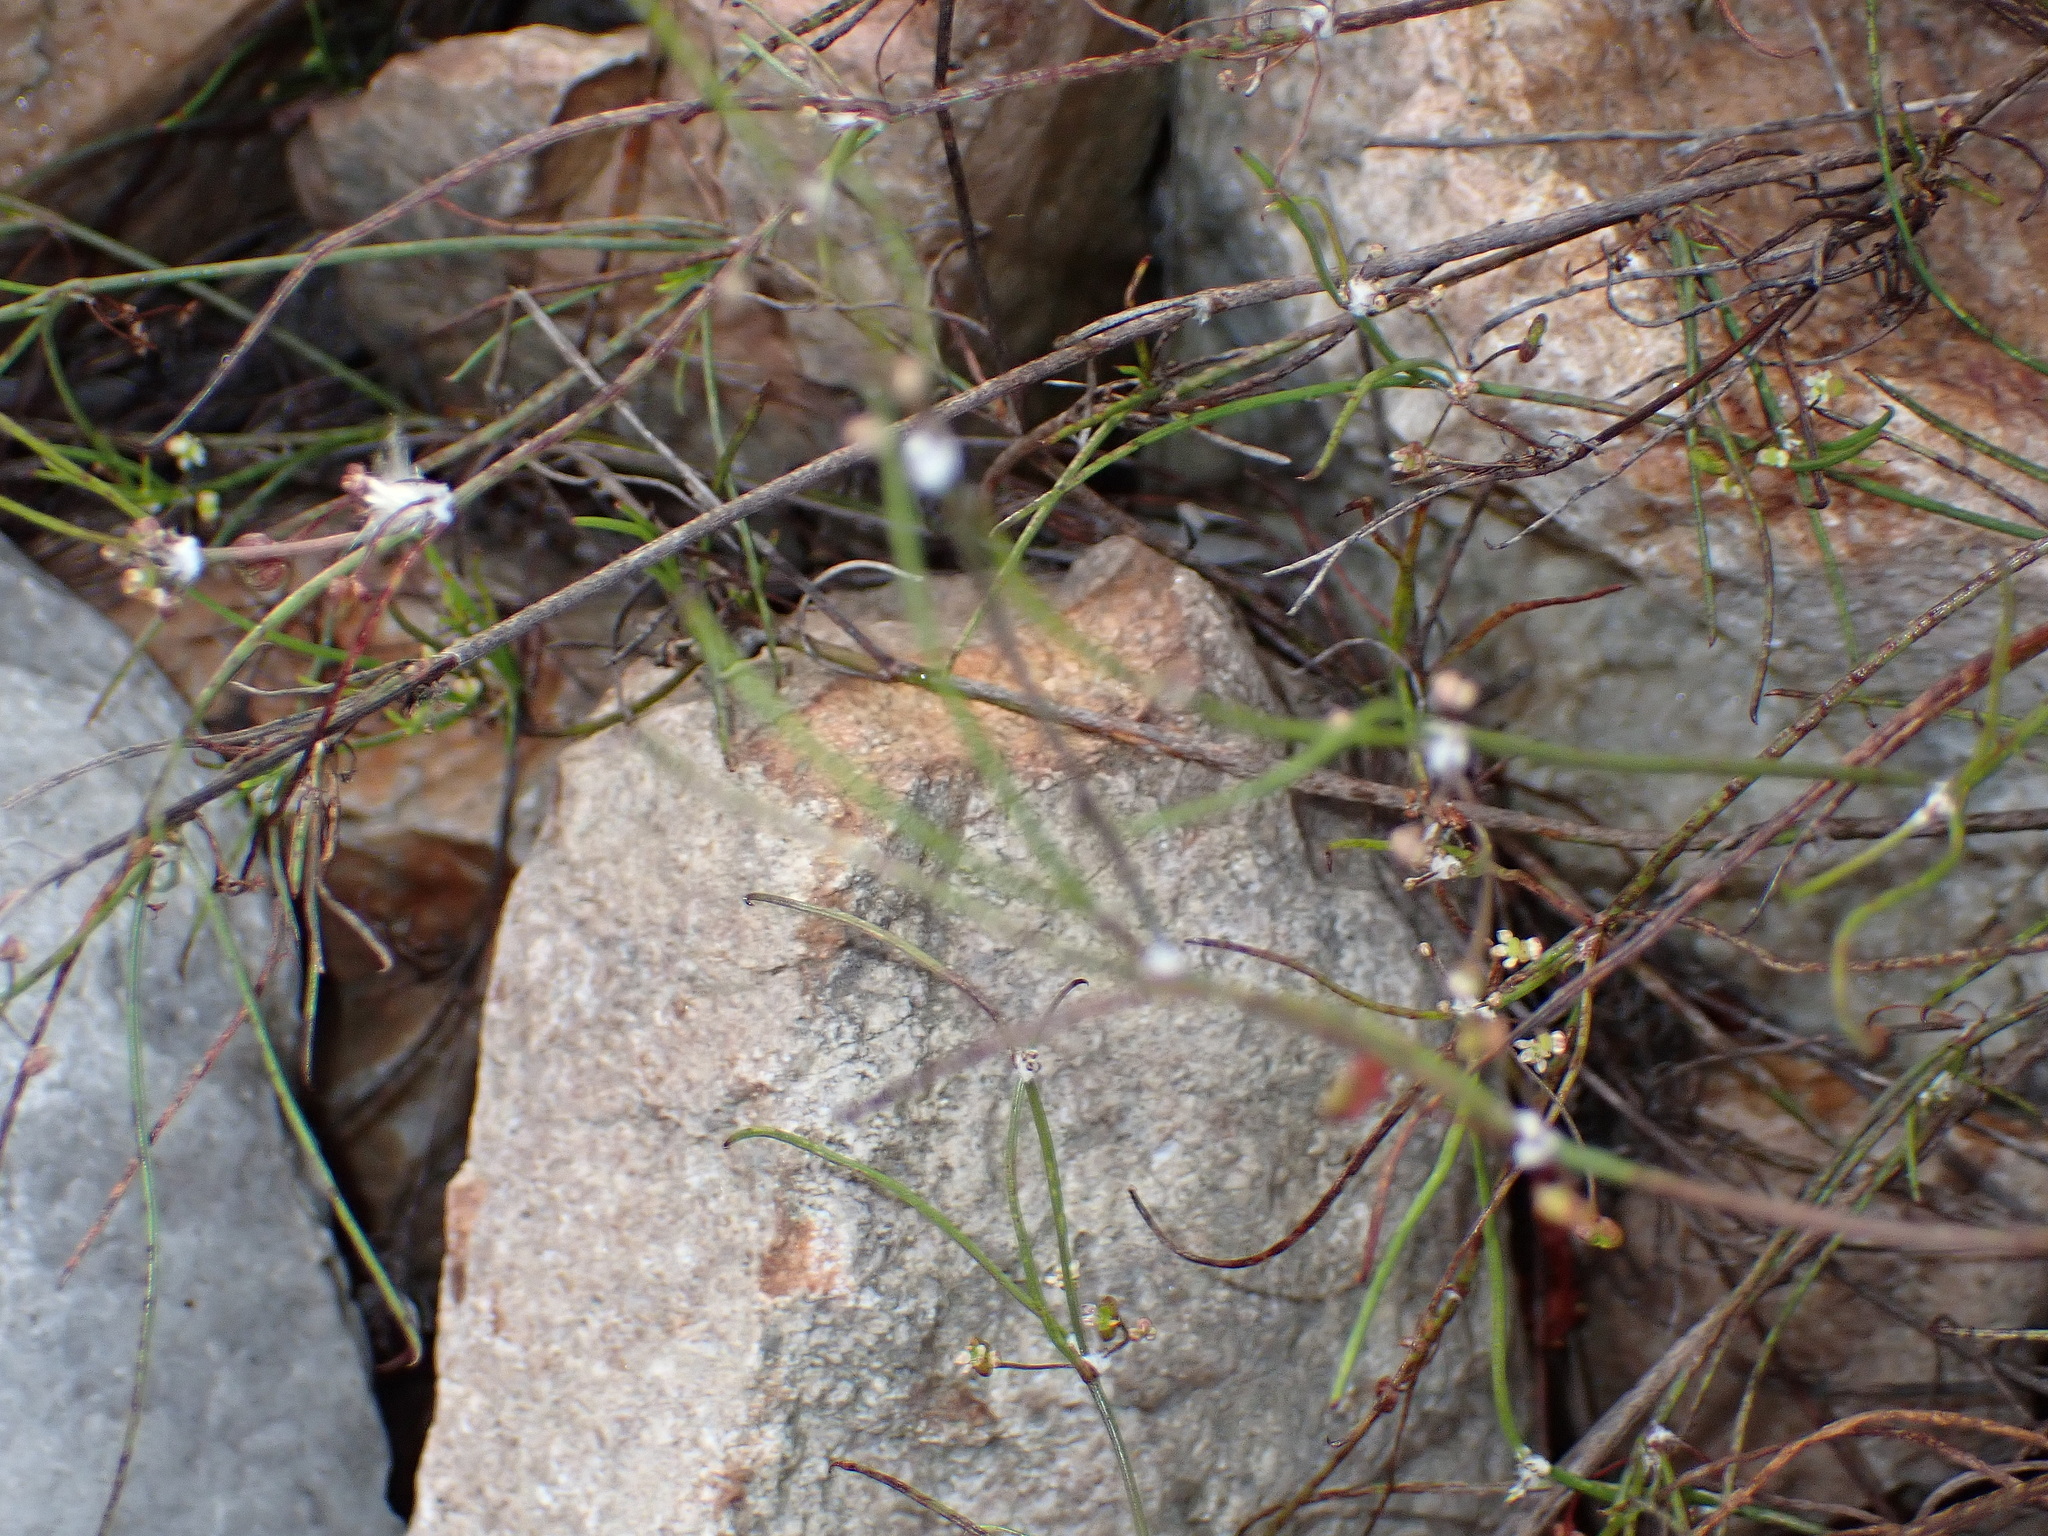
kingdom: Plantae
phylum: Tracheophyta
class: Magnoliopsida
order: Apiales
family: Apiaceae
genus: Centella
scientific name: Centella virgata
